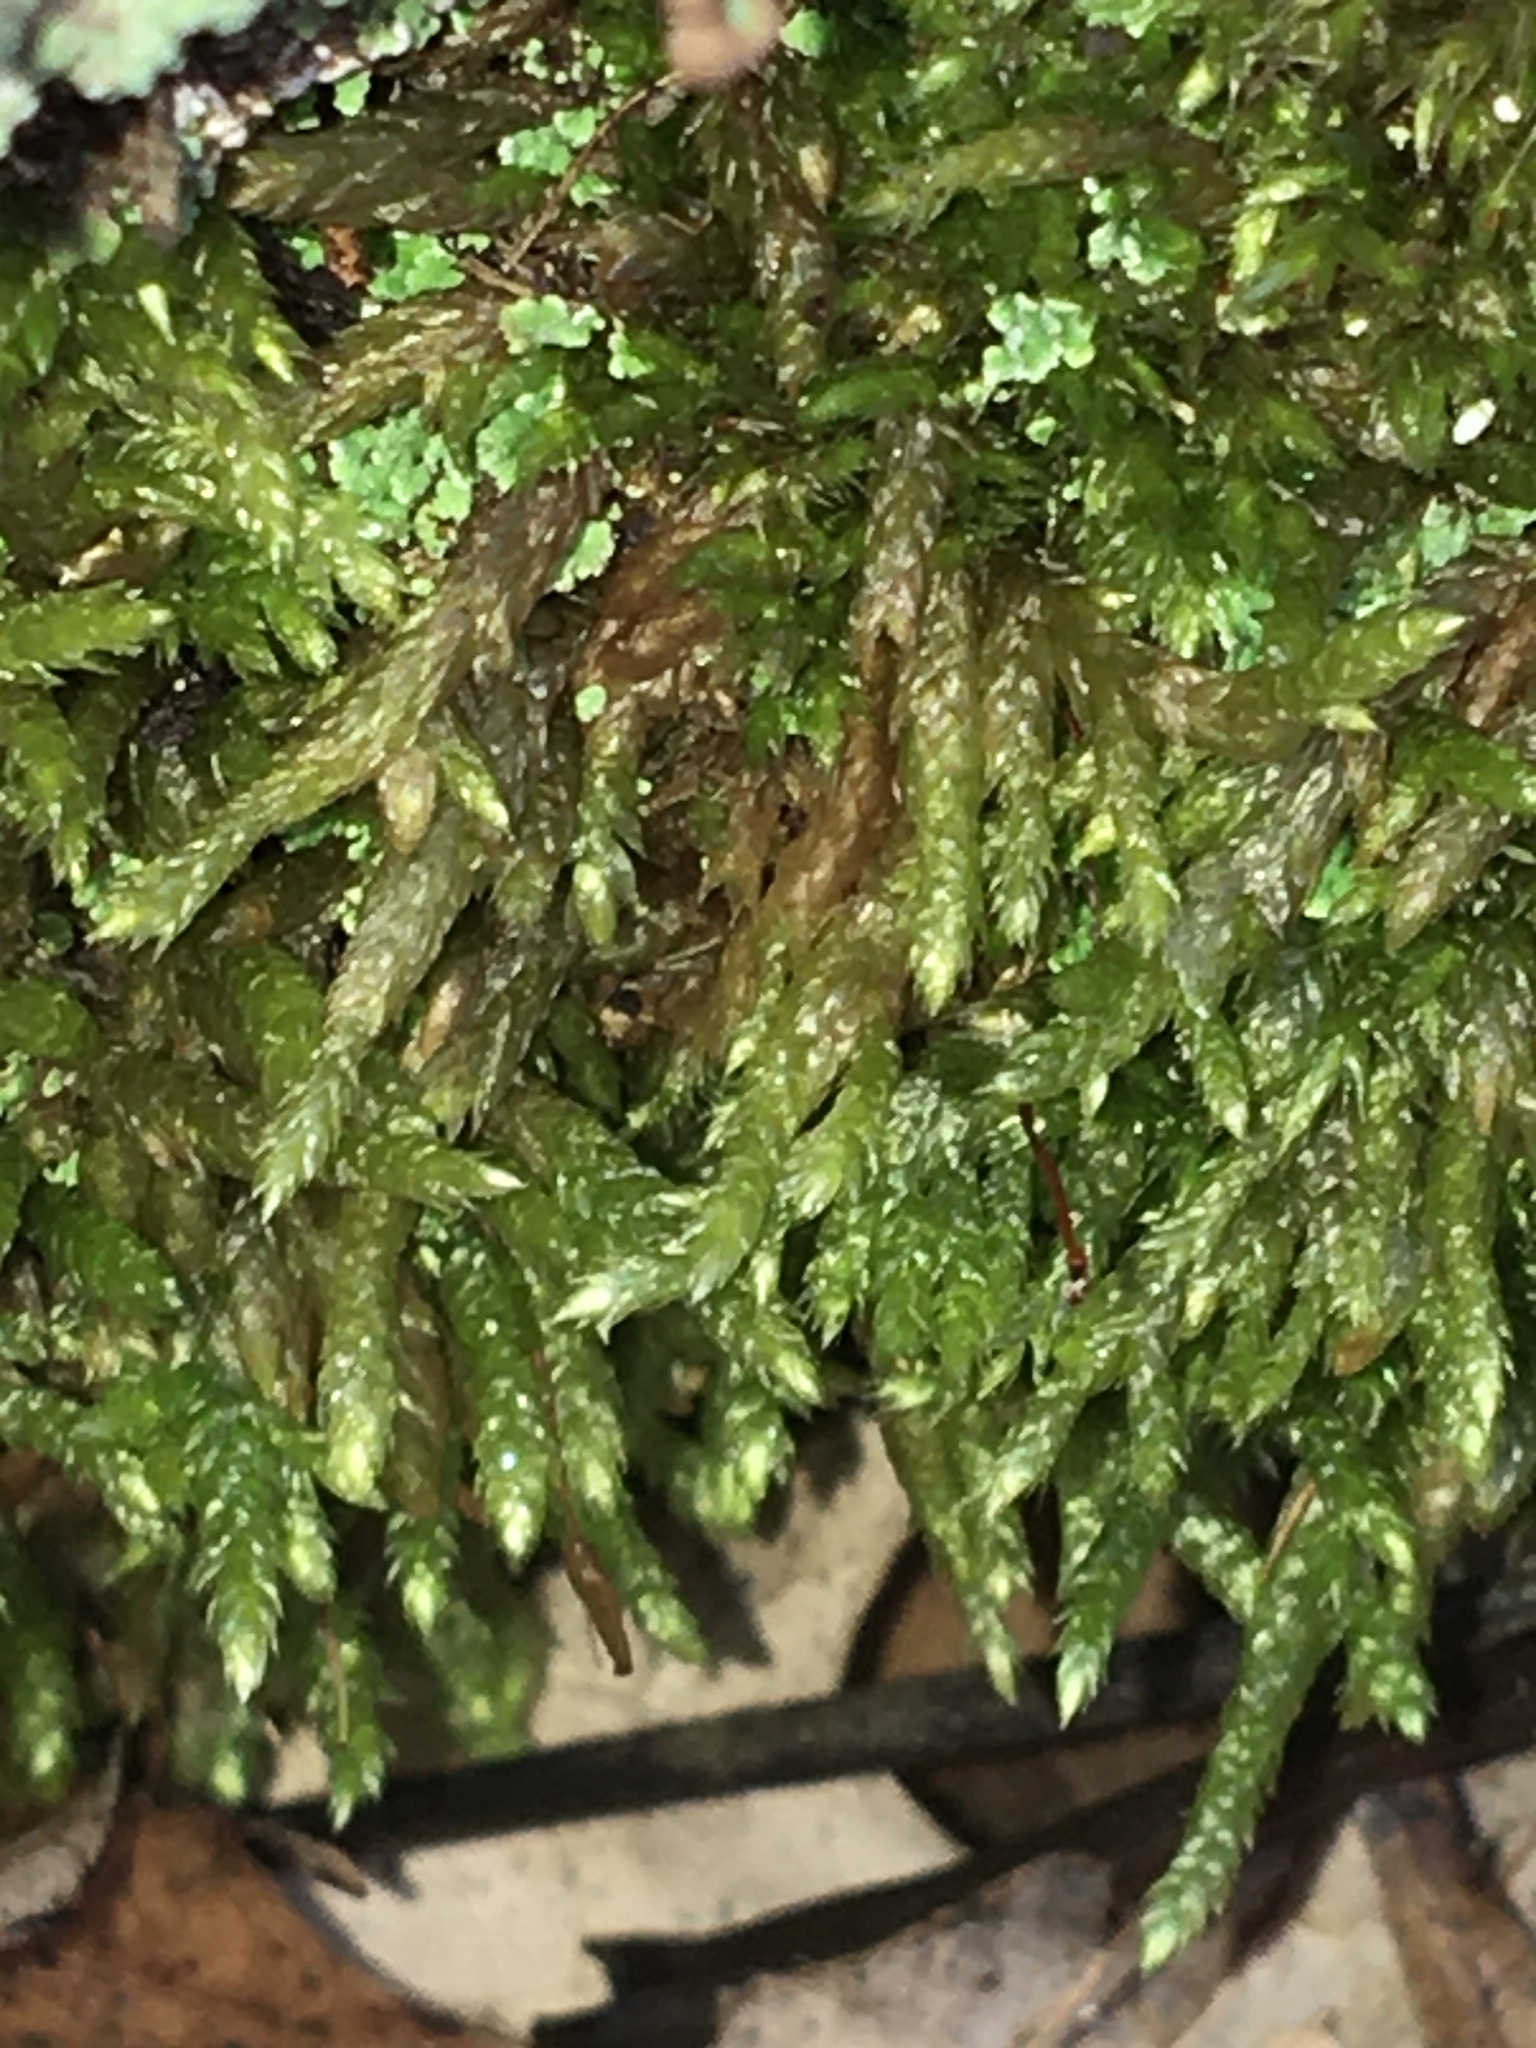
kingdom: Plantae
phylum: Bryophyta
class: Bryopsida
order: Hypnales
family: Brachytheciaceae
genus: Bryoandersonia
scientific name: Bryoandersonia illecebra
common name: Spoon-leaved moss
